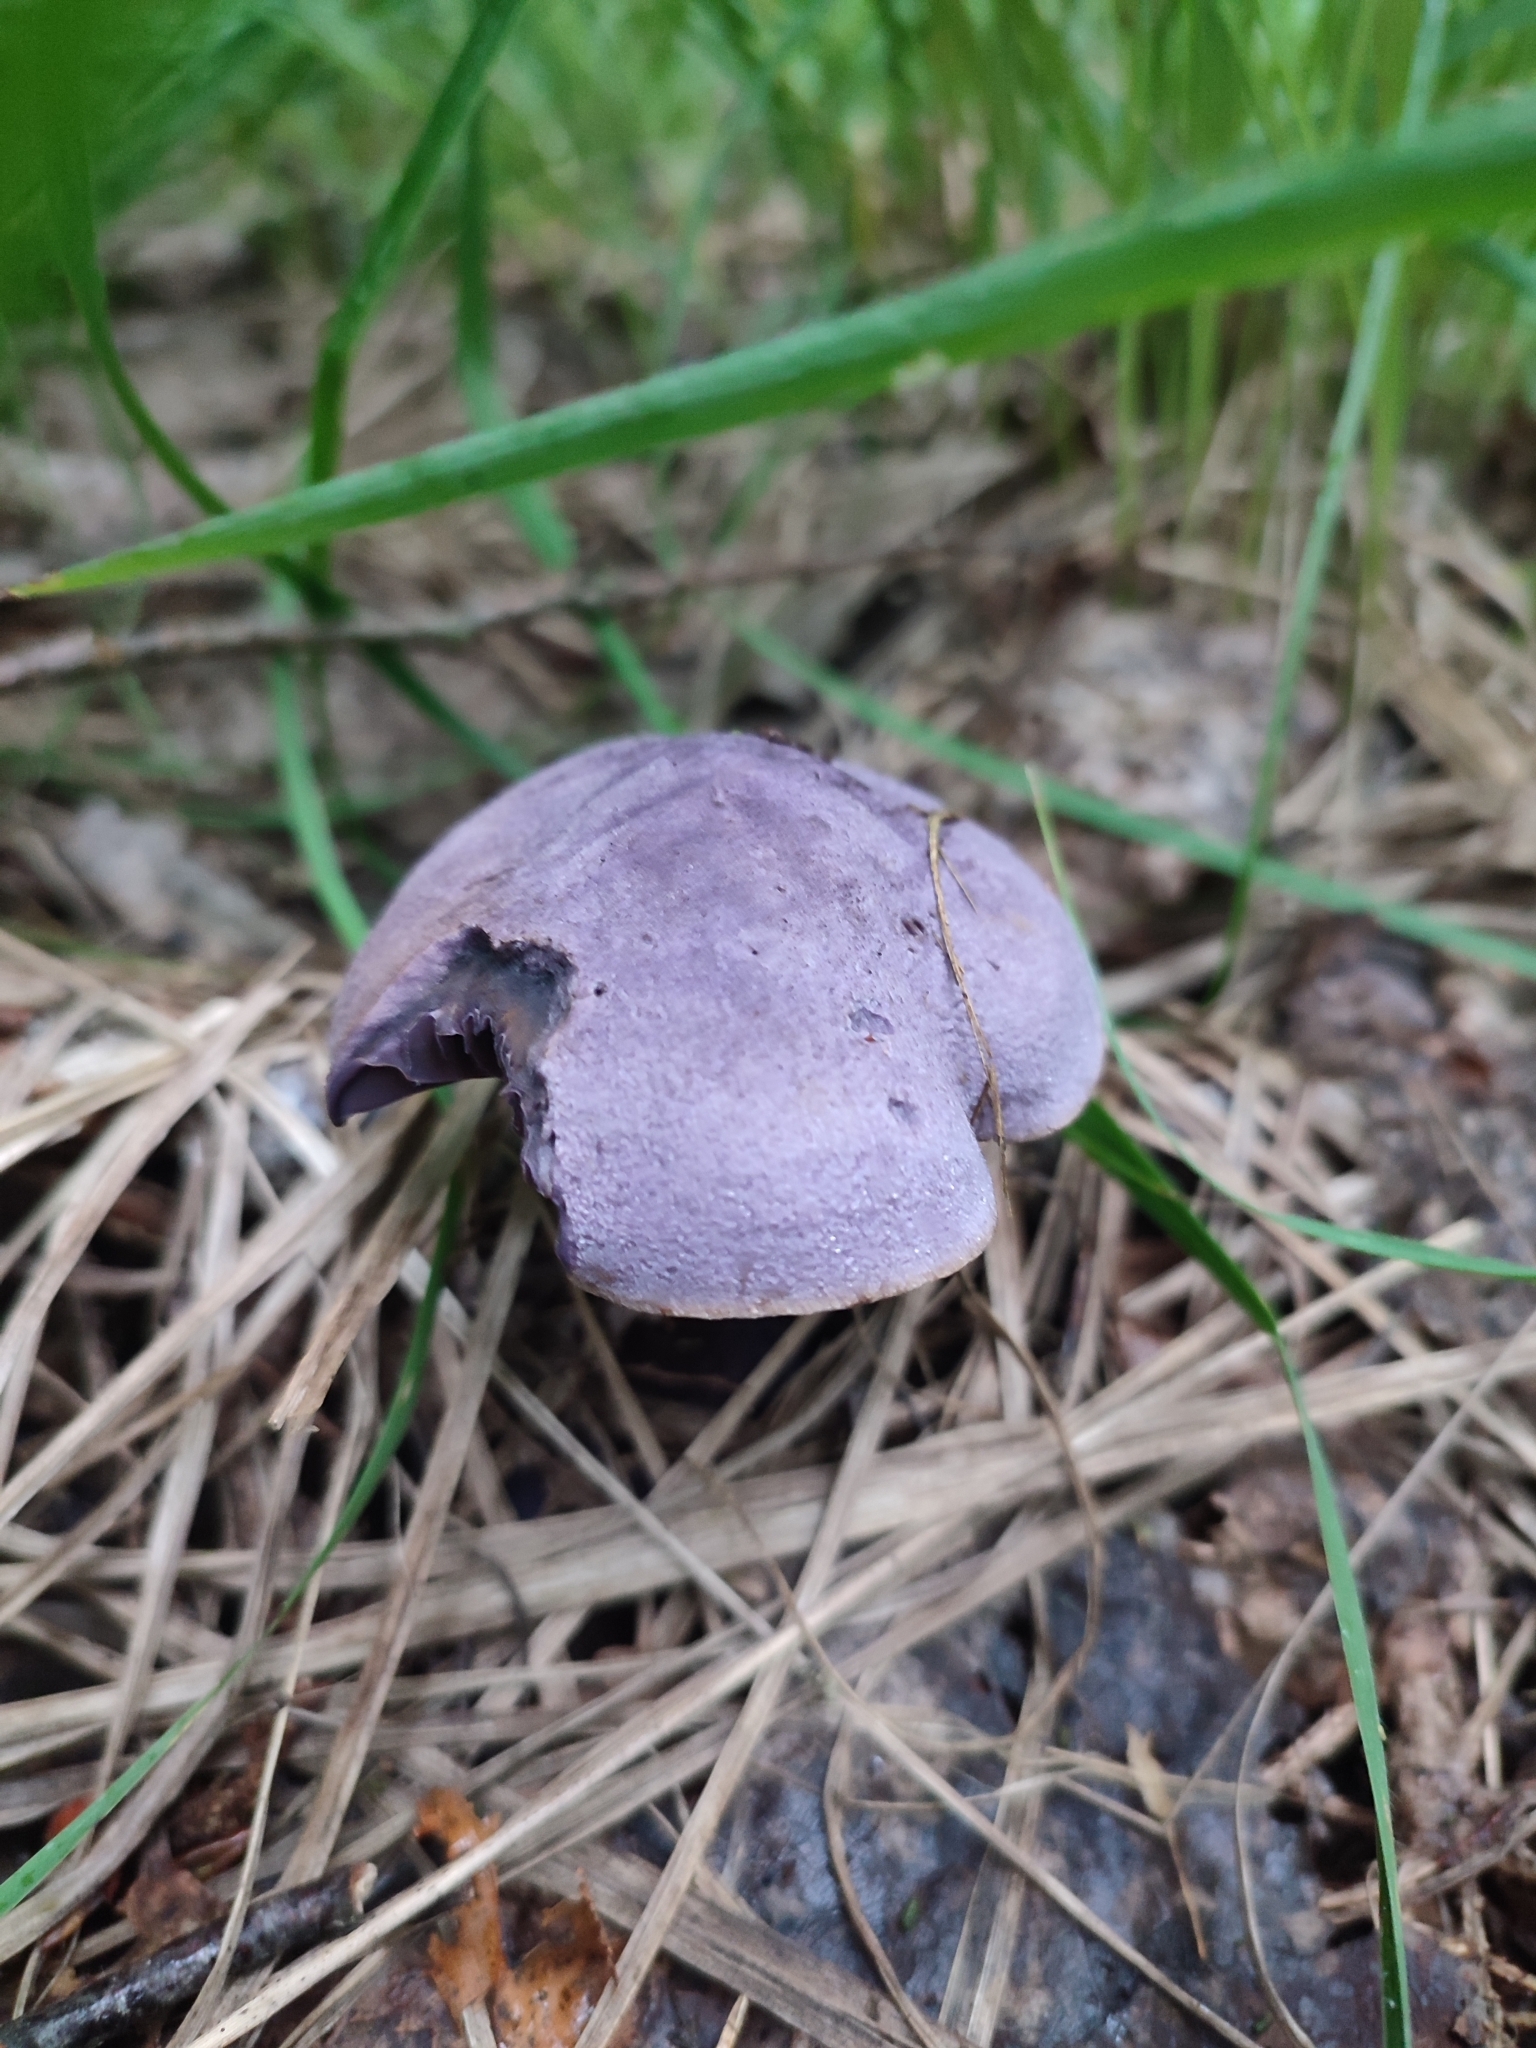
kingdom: Fungi
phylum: Basidiomycota
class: Agaricomycetes
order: Agaricales
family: Cortinariaceae
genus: Cortinarius
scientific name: Cortinarius violaceus
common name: Violet webcap
